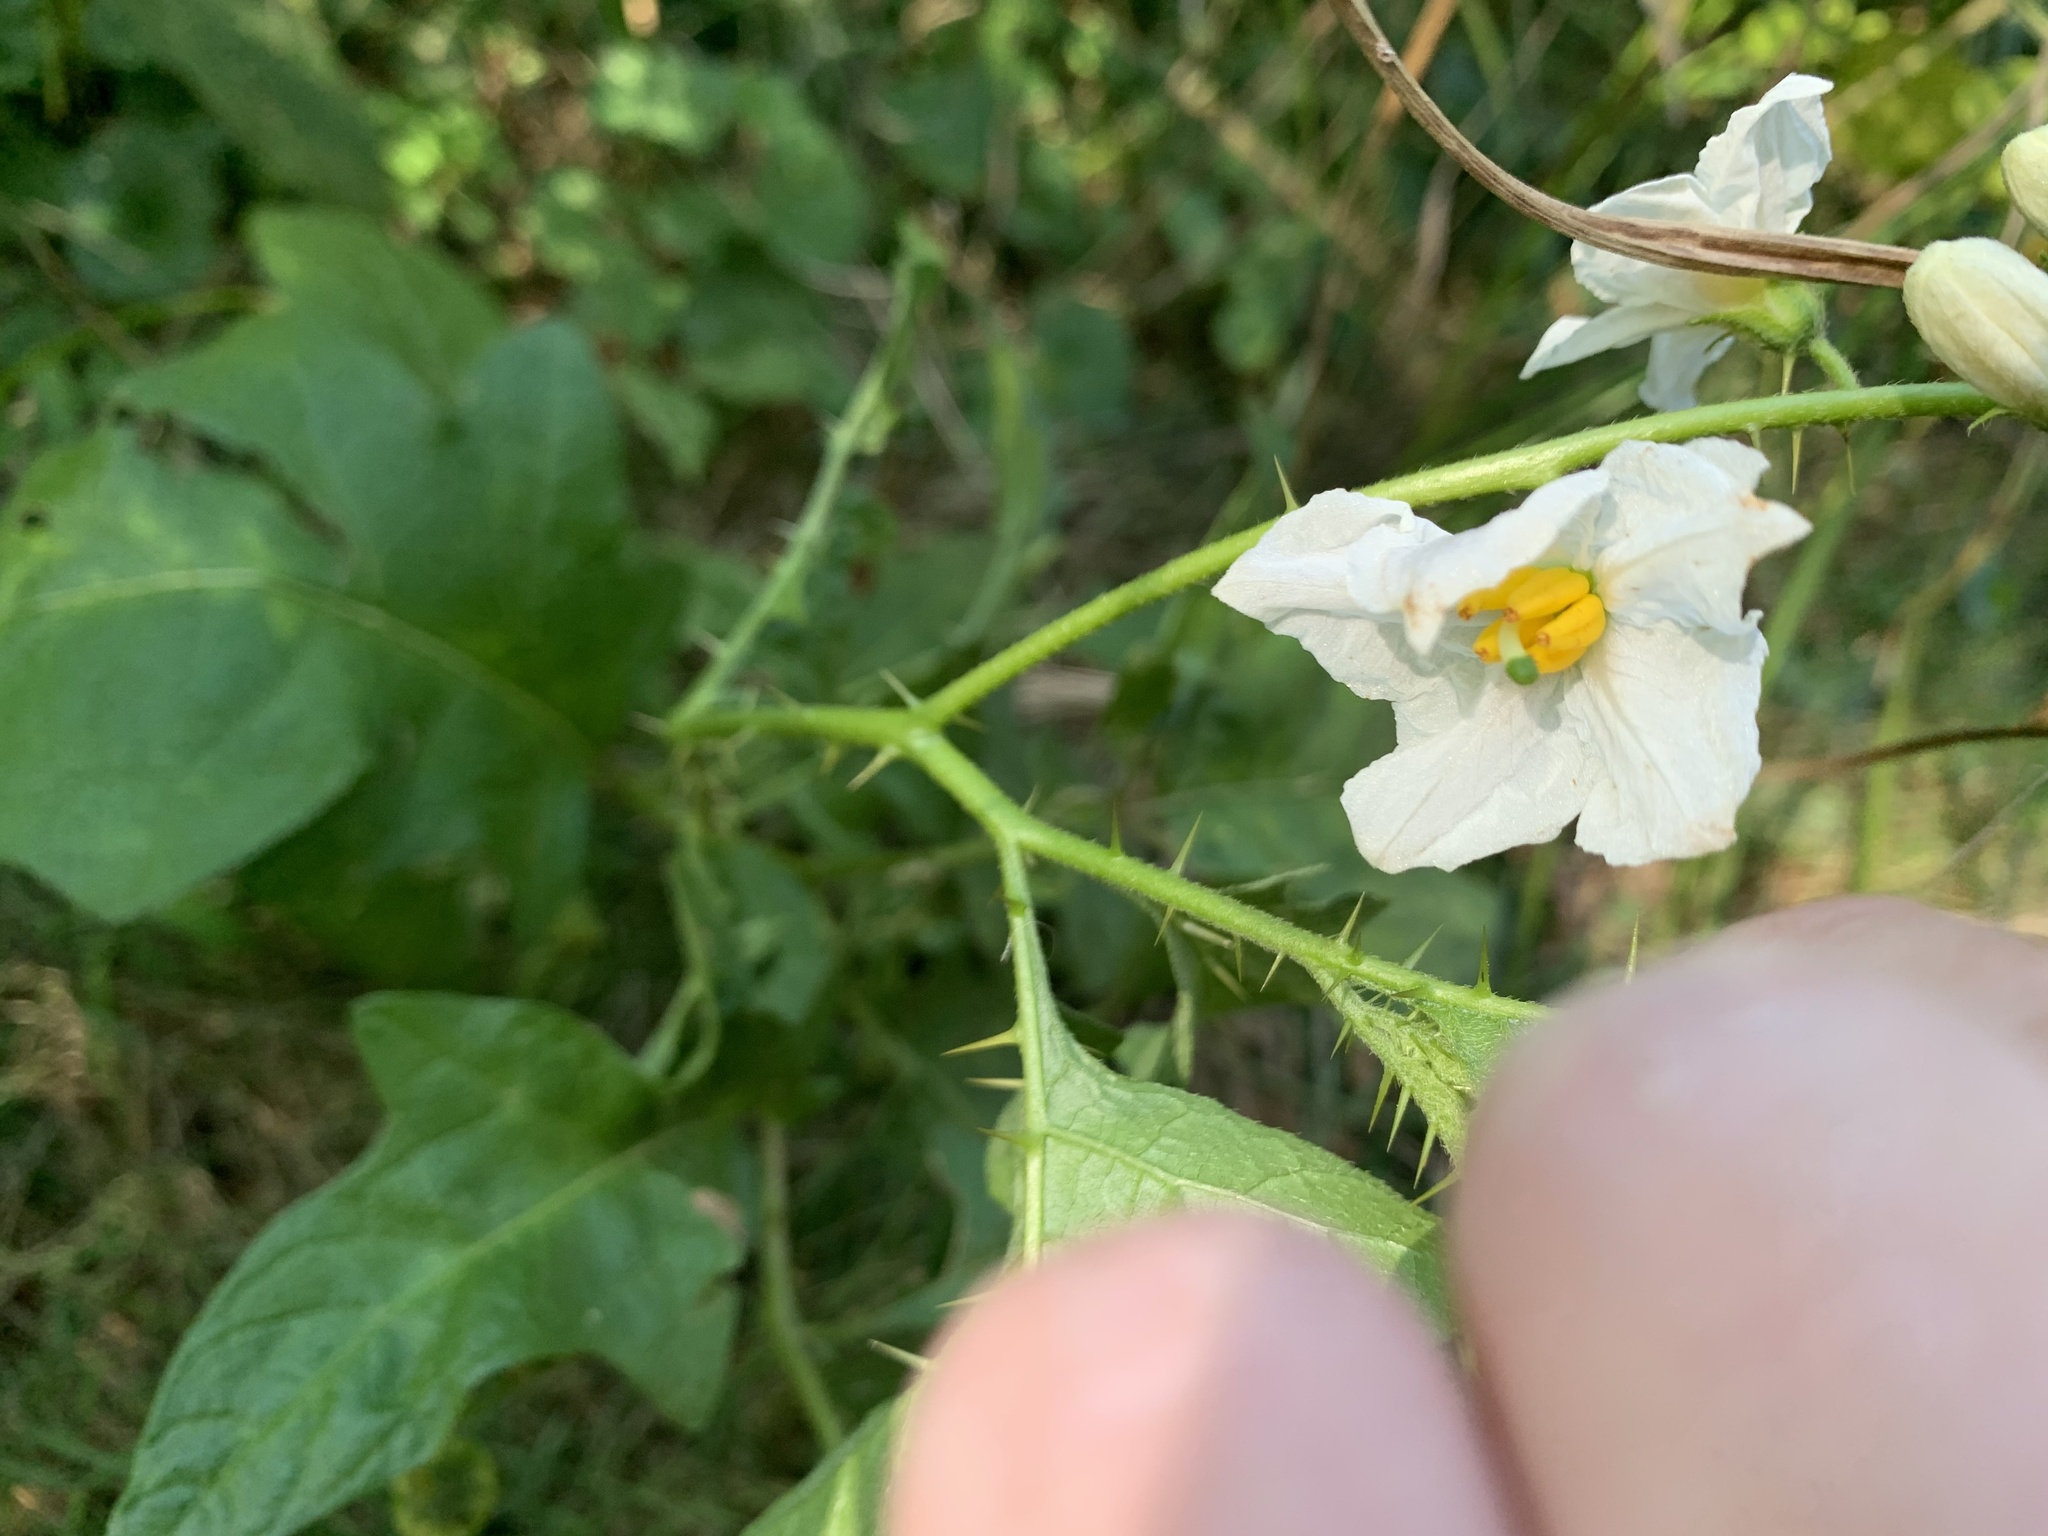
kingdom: Plantae
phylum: Tracheophyta
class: Magnoliopsida
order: Solanales
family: Solanaceae
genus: Solanum
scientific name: Solanum carolinense
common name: Horse-nettle
